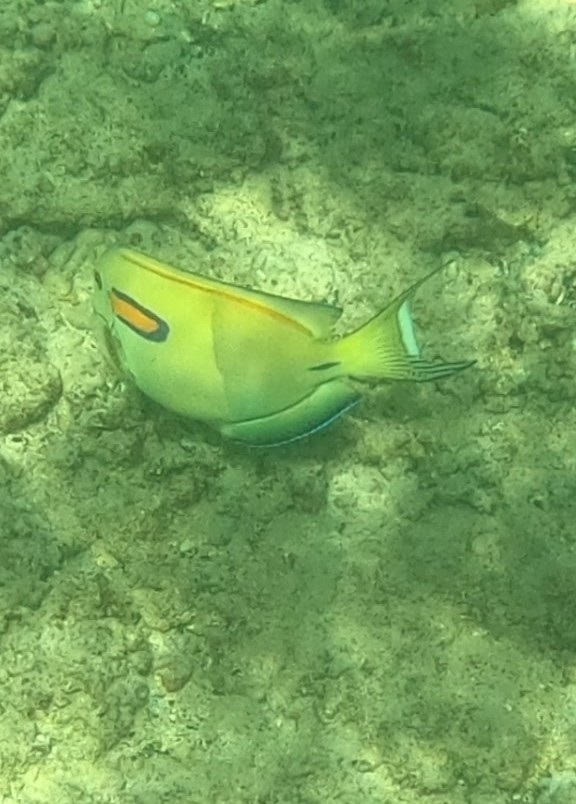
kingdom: Animalia
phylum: Chordata
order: Perciformes
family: Acanthuridae
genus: Acanthurus
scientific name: Acanthurus olivaceus
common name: Gendarme fish
